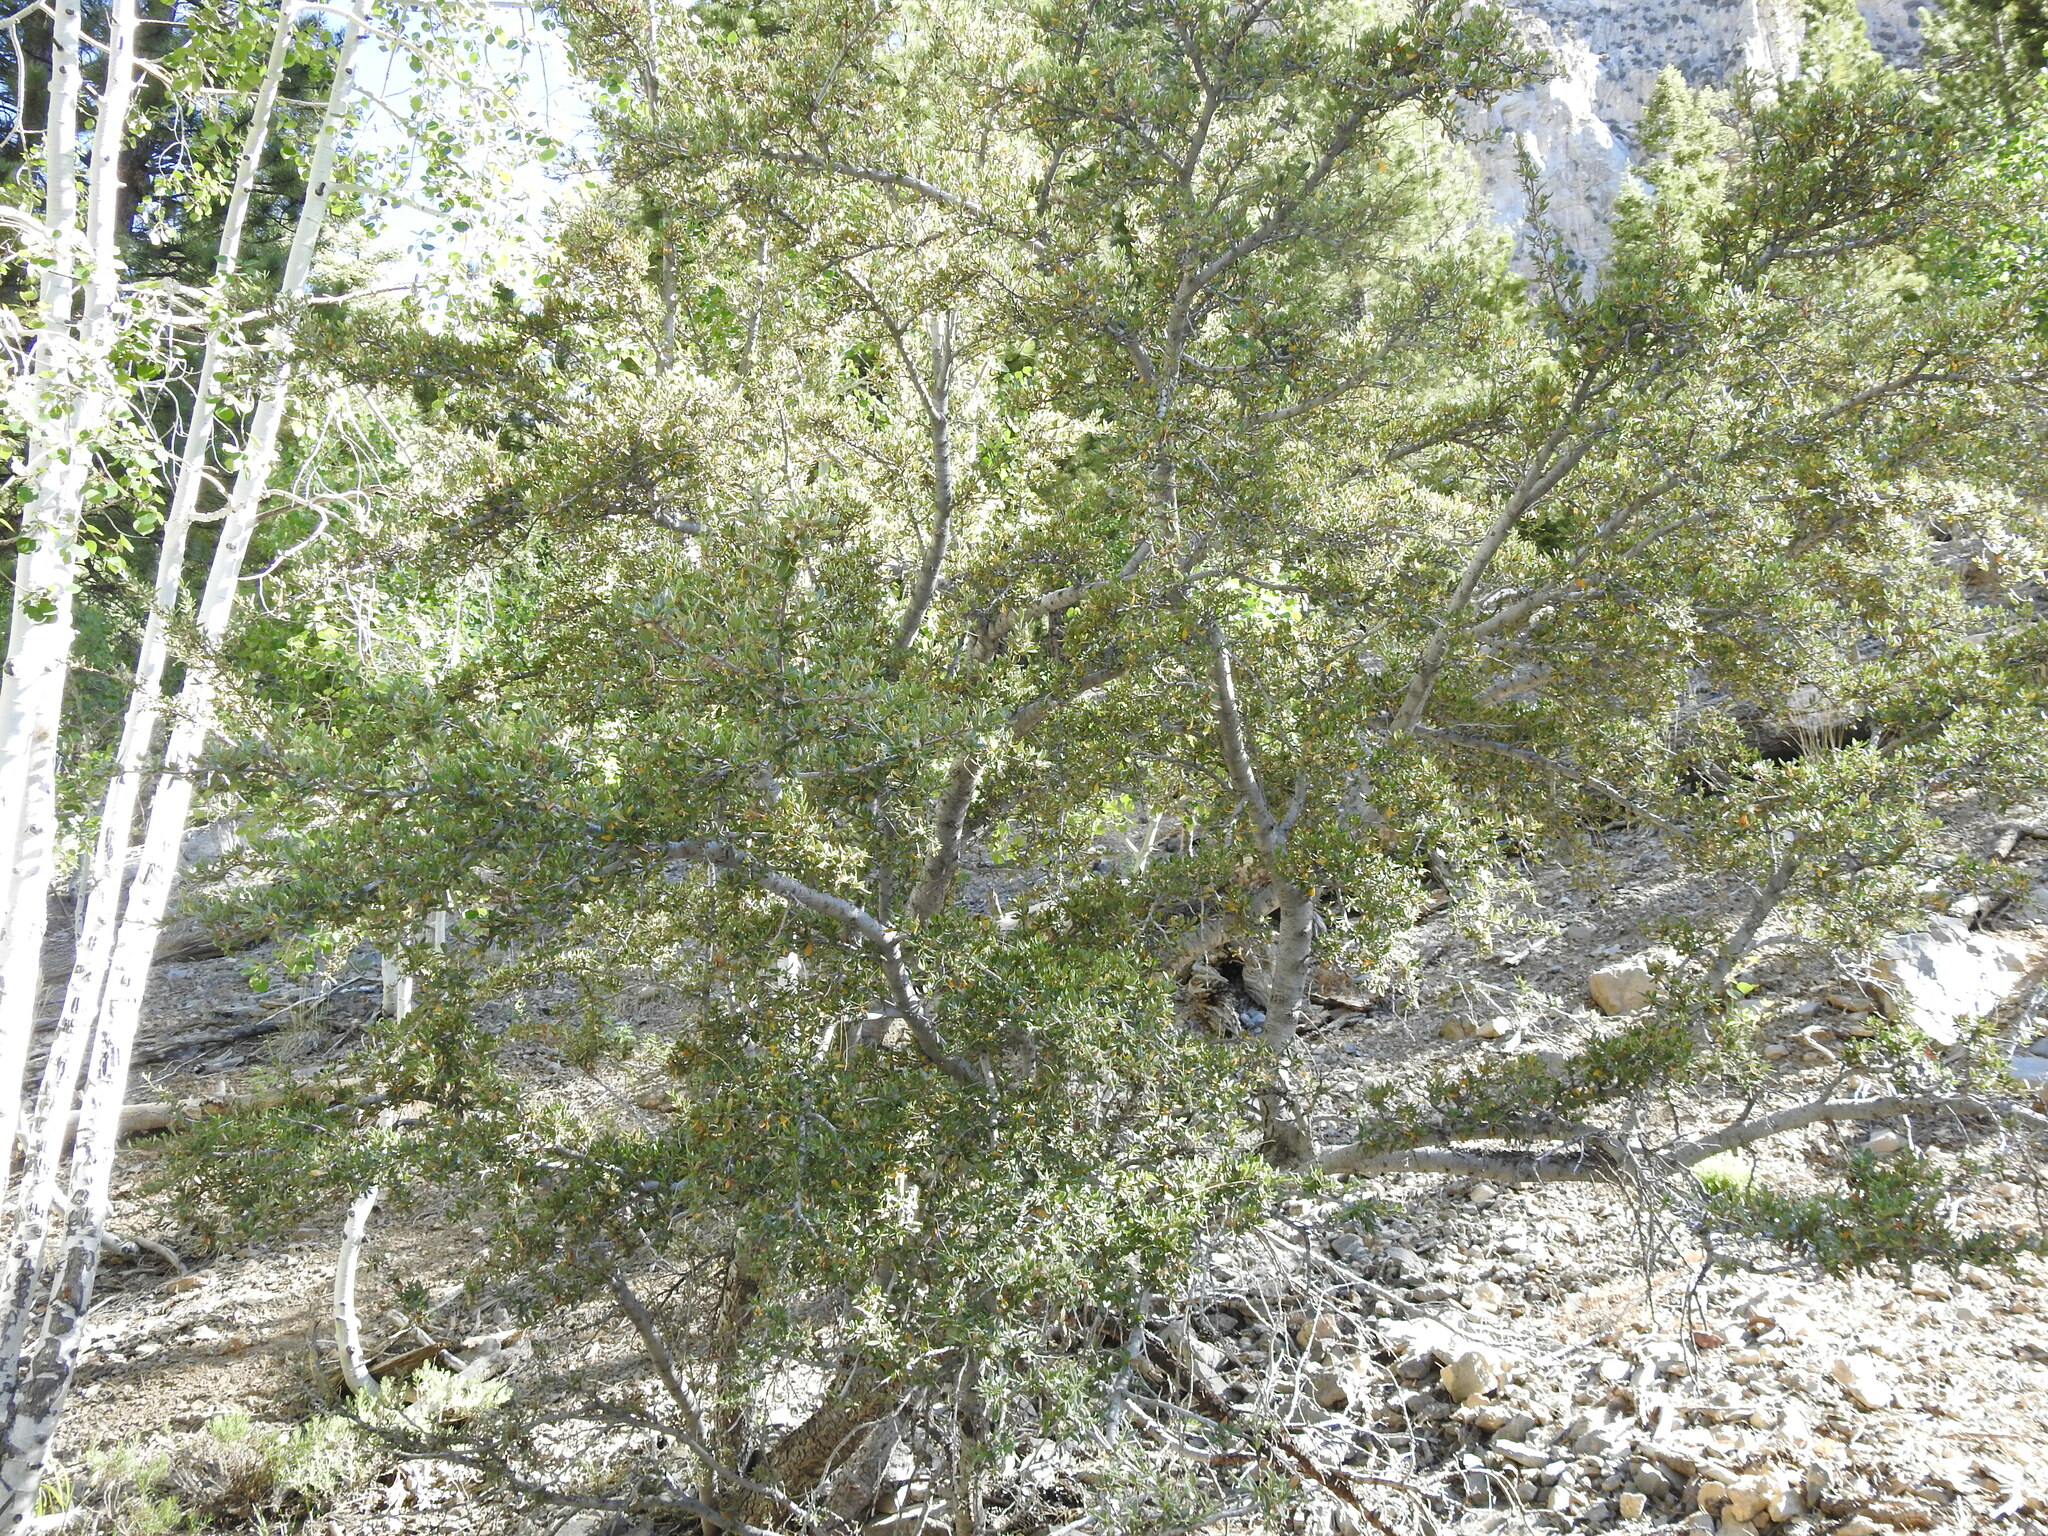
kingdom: Plantae
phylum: Tracheophyta
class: Magnoliopsida
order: Rosales
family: Rosaceae
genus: Cercocarpus
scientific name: Cercocarpus ledifolius
